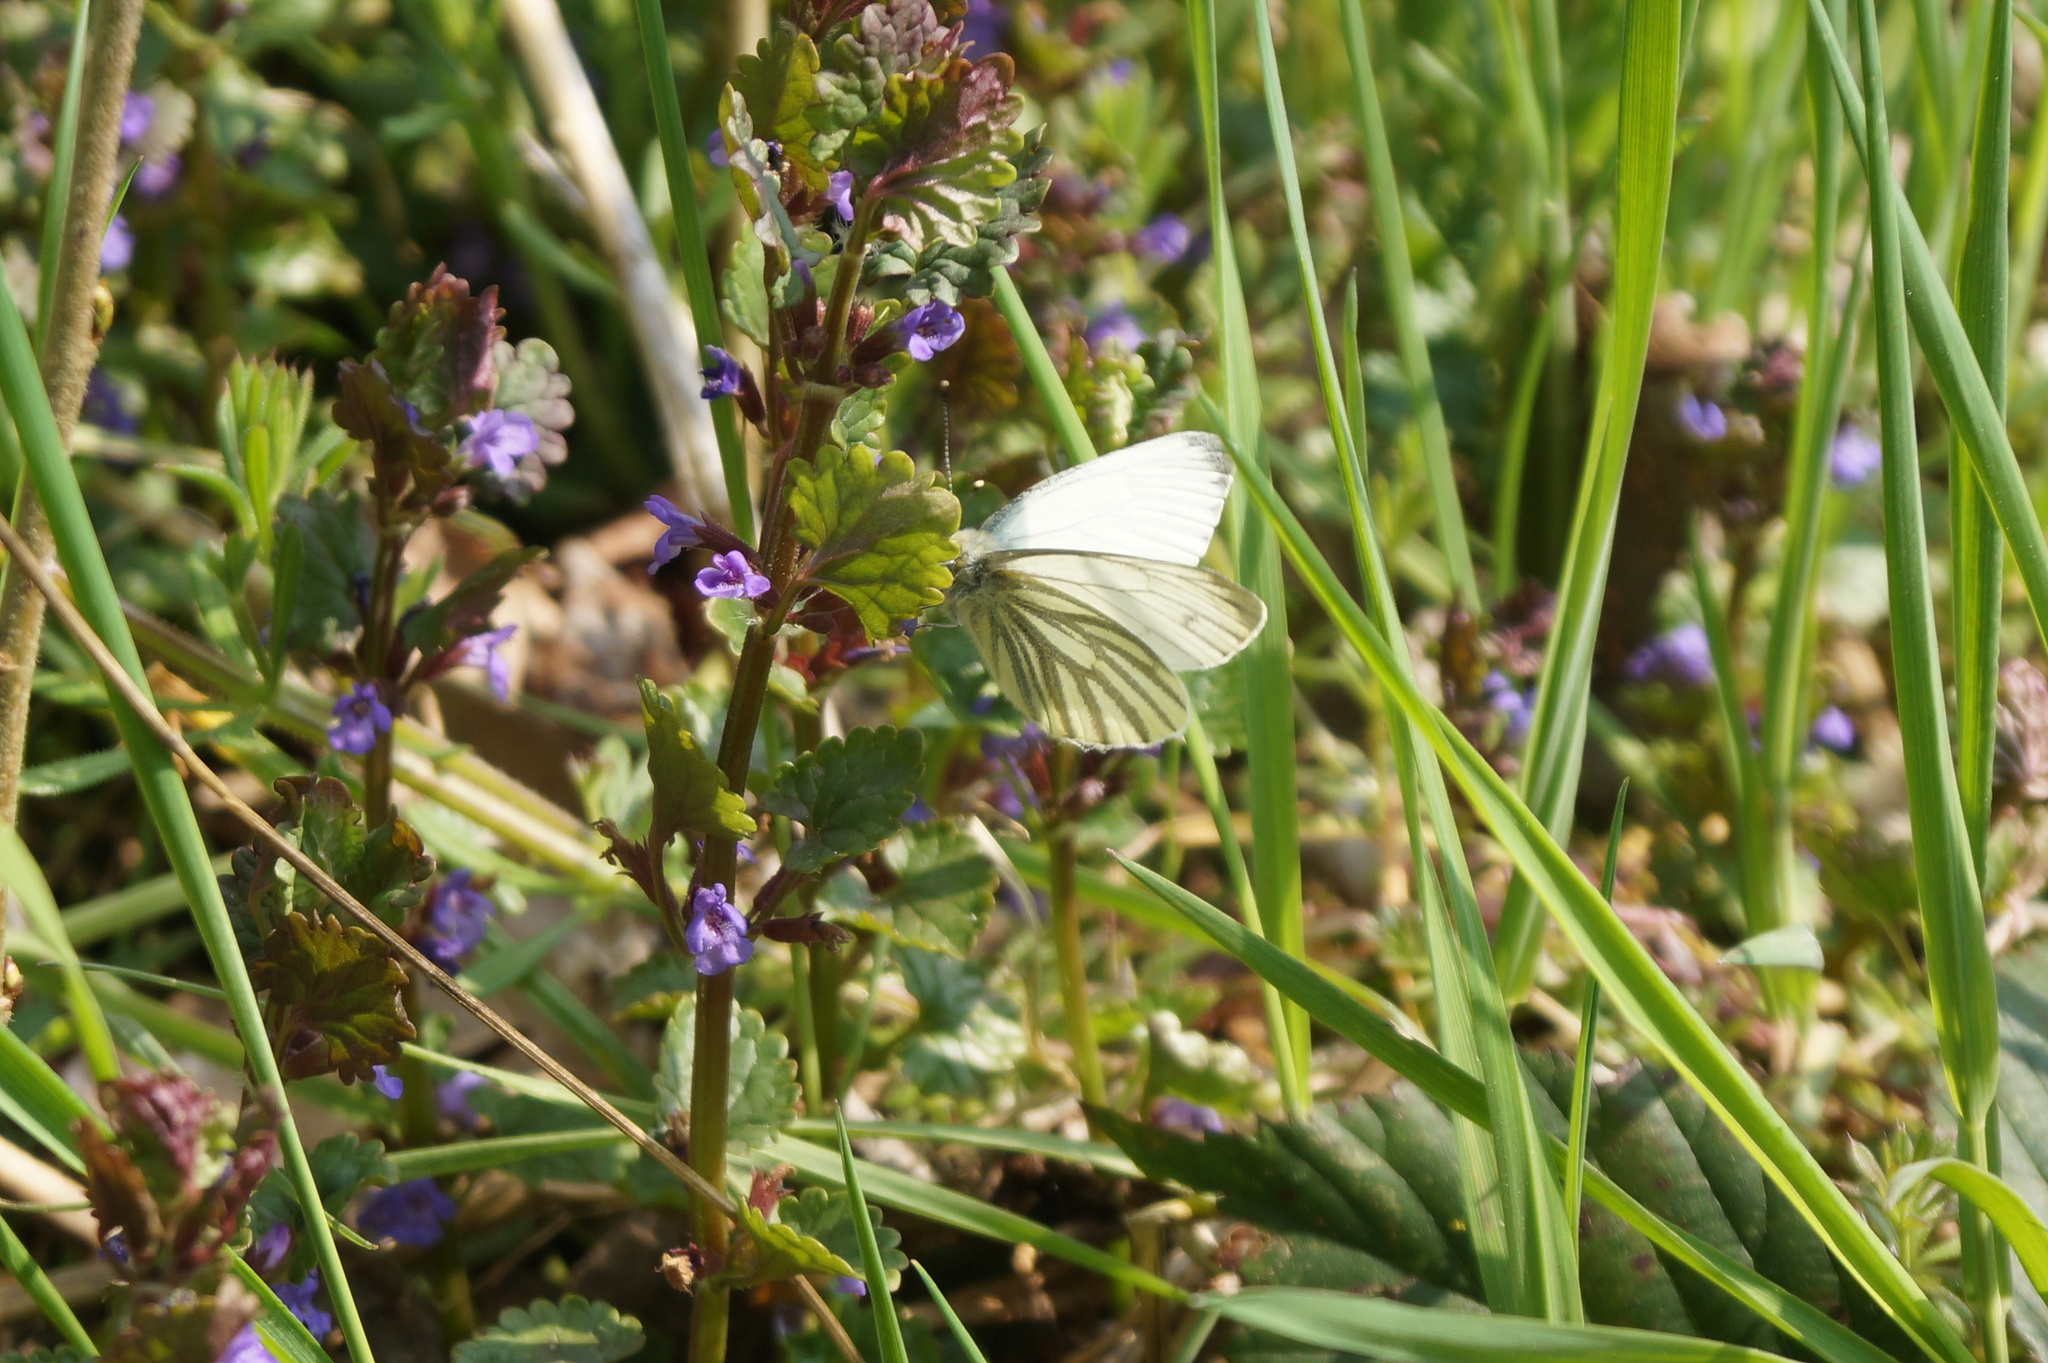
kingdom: Animalia
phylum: Arthropoda
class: Insecta
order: Lepidoptera
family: Pieridae
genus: Pieris
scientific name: Pieris napi
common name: Green-veined white
